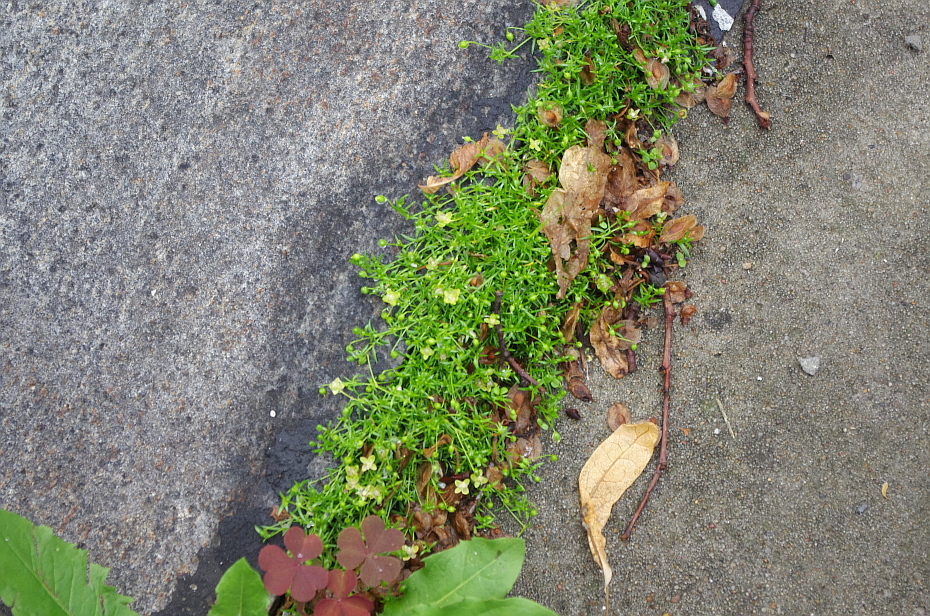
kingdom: Plantae
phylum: Tracheophyta
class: Magnoliopsida
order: Caryophyllales
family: Caryophyllaceae
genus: Sagina
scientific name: Sagina procumbens
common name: Procumbent pearlwort
